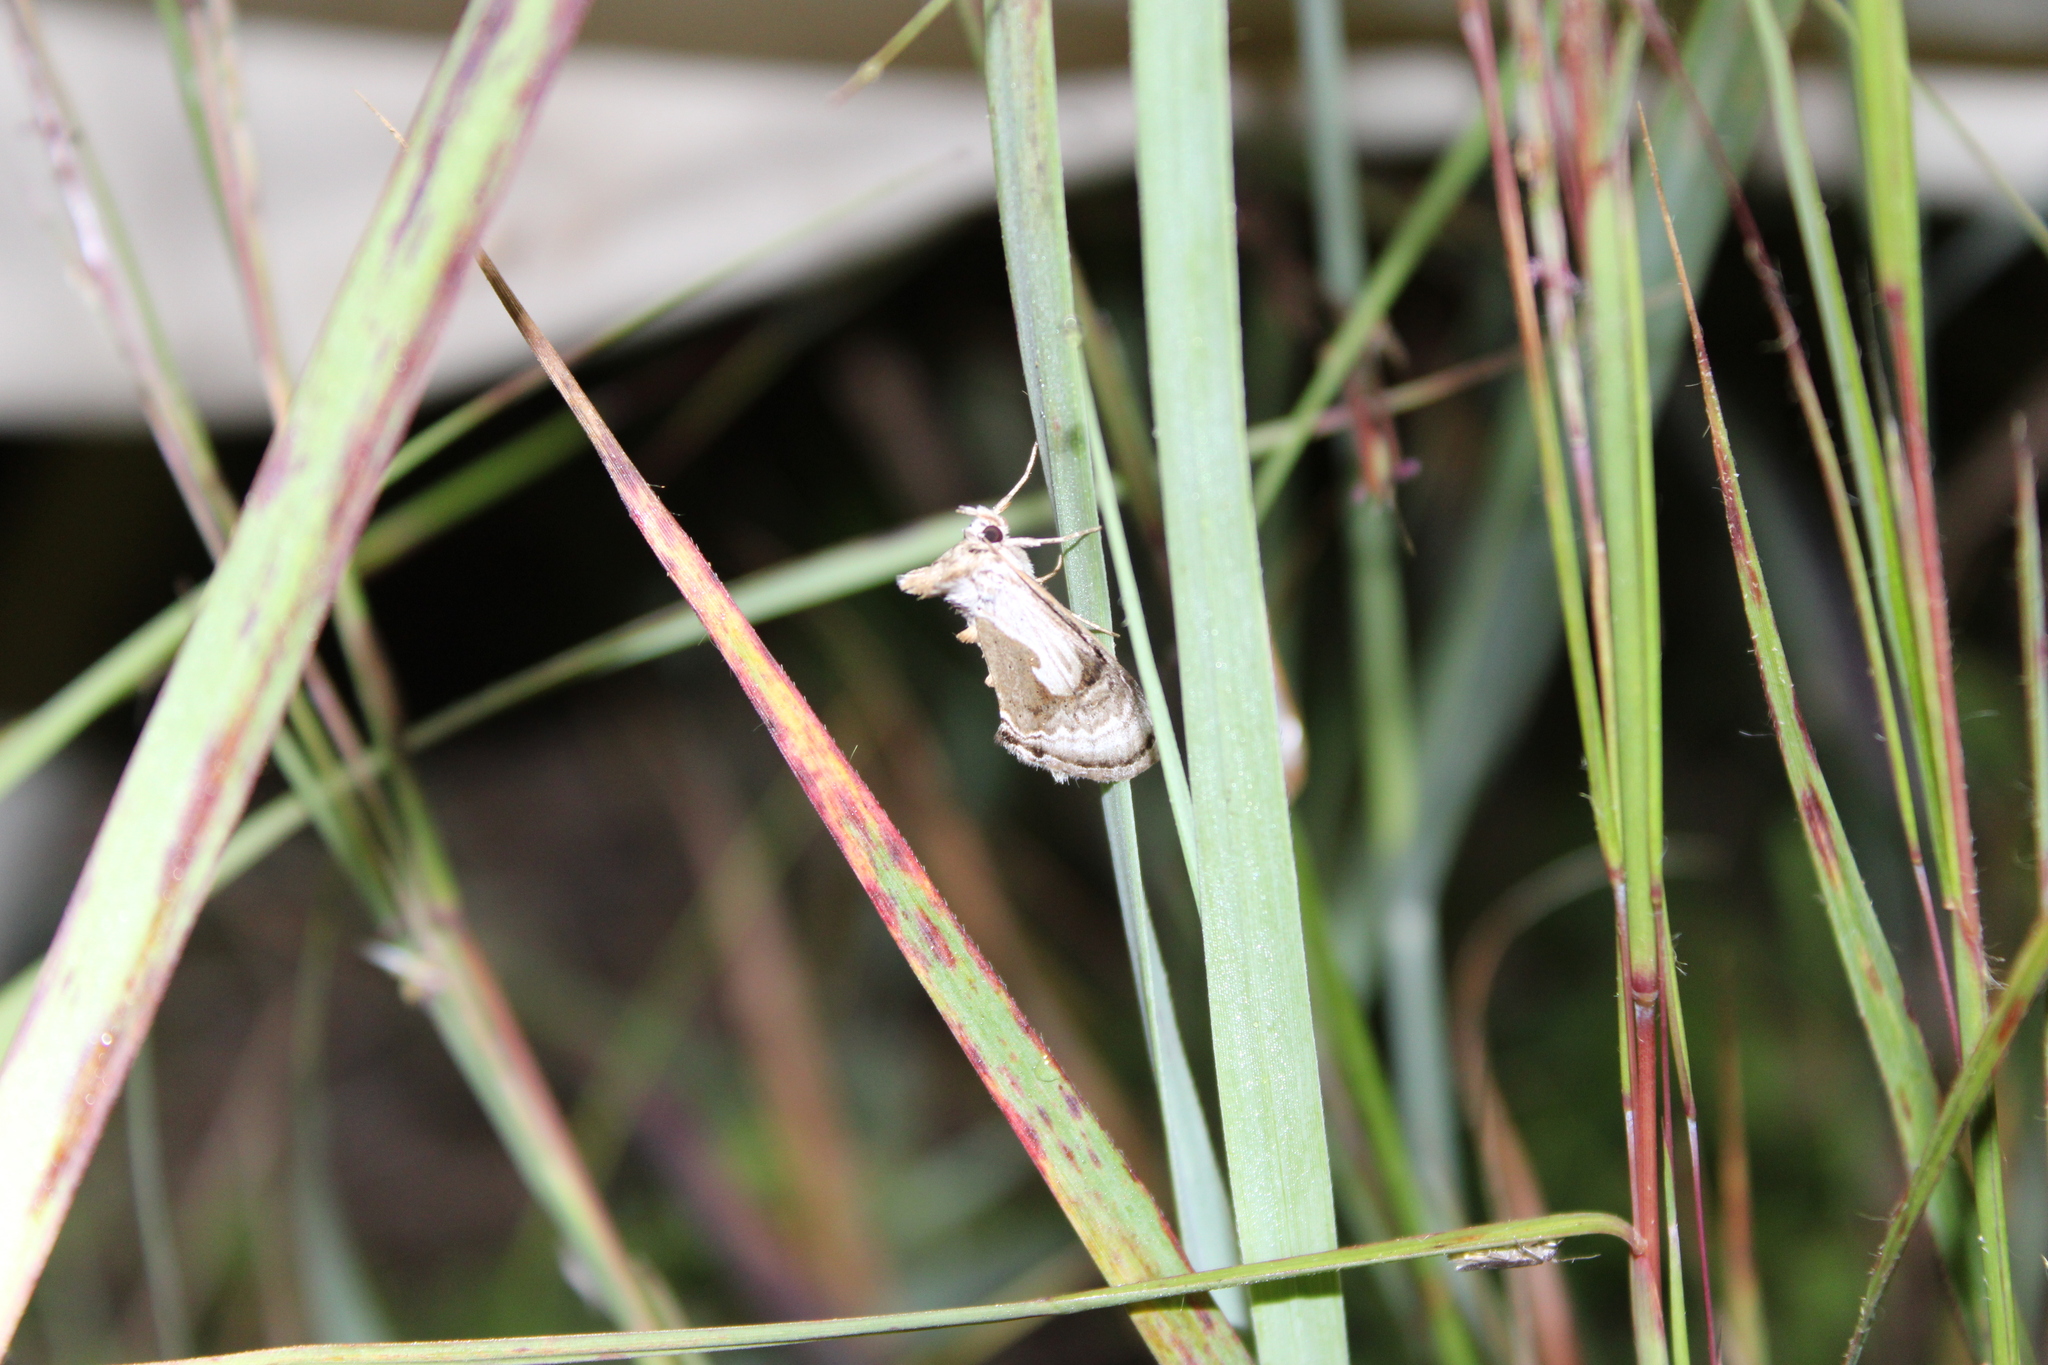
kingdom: Animalia
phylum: Arthropoda
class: Insecta
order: Lepidoptera
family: Noctuidae
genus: Chrysanympha
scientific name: Chrysanympha formosa
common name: Formosa looper moth
